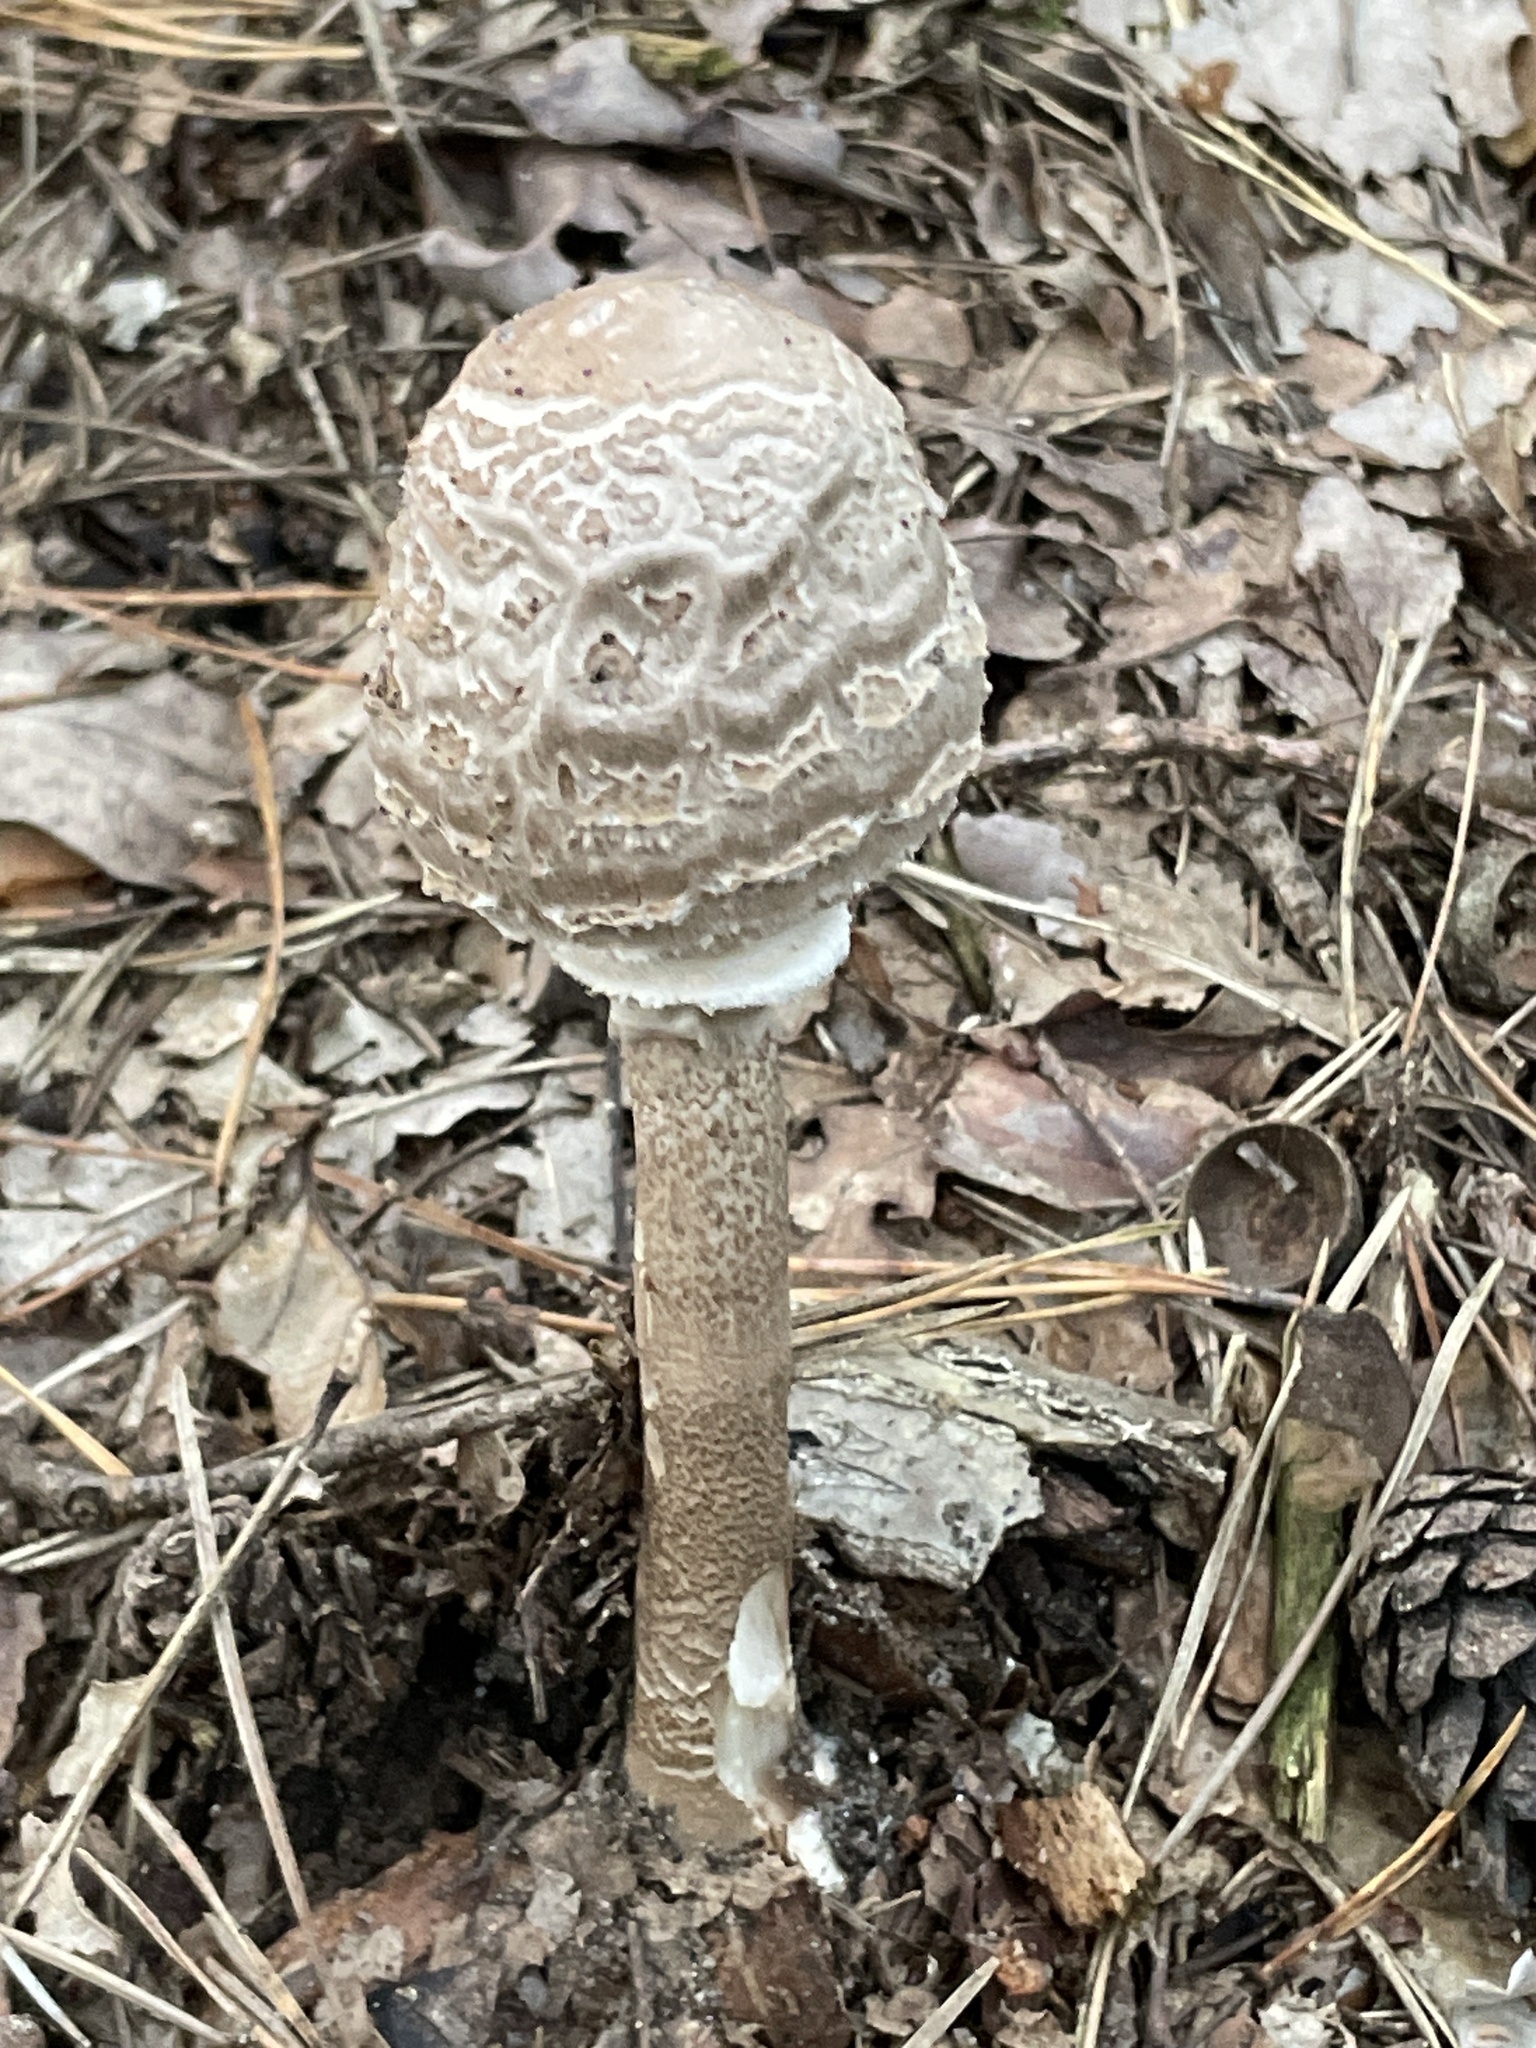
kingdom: Fungi
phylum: Basidiomycota
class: Agaricomycetes
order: Agaricales
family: Agaricaceae
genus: Macrolepiota
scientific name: Macrolepiota procera
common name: Parasol
